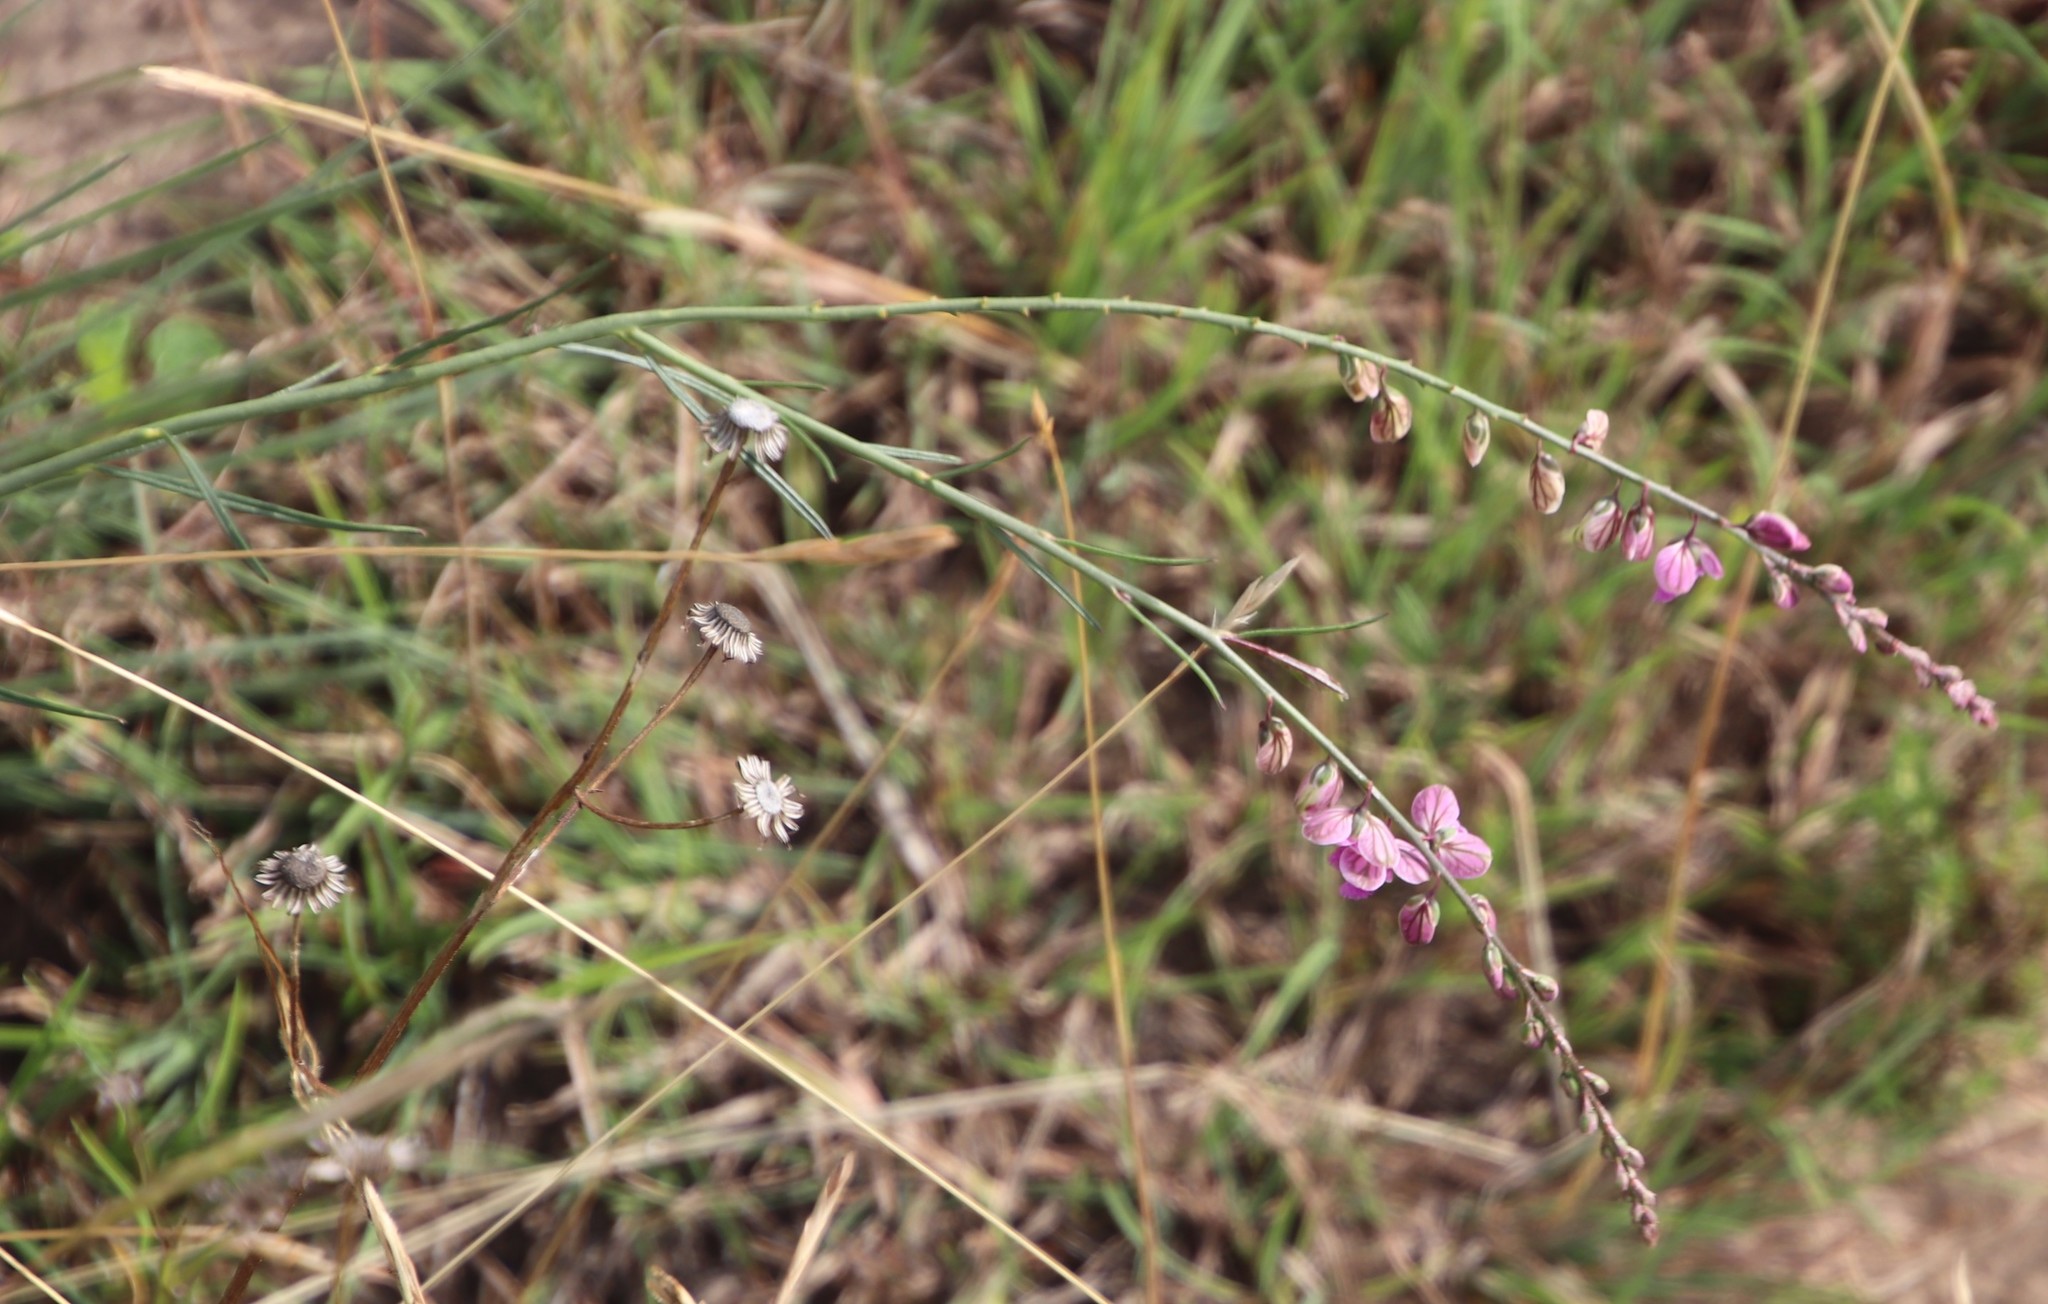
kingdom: Plantae
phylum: Tracheophyta
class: Magnoliopsida
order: Fabales
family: Polygalaceae
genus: Polygala
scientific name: Polygala hottentotta
